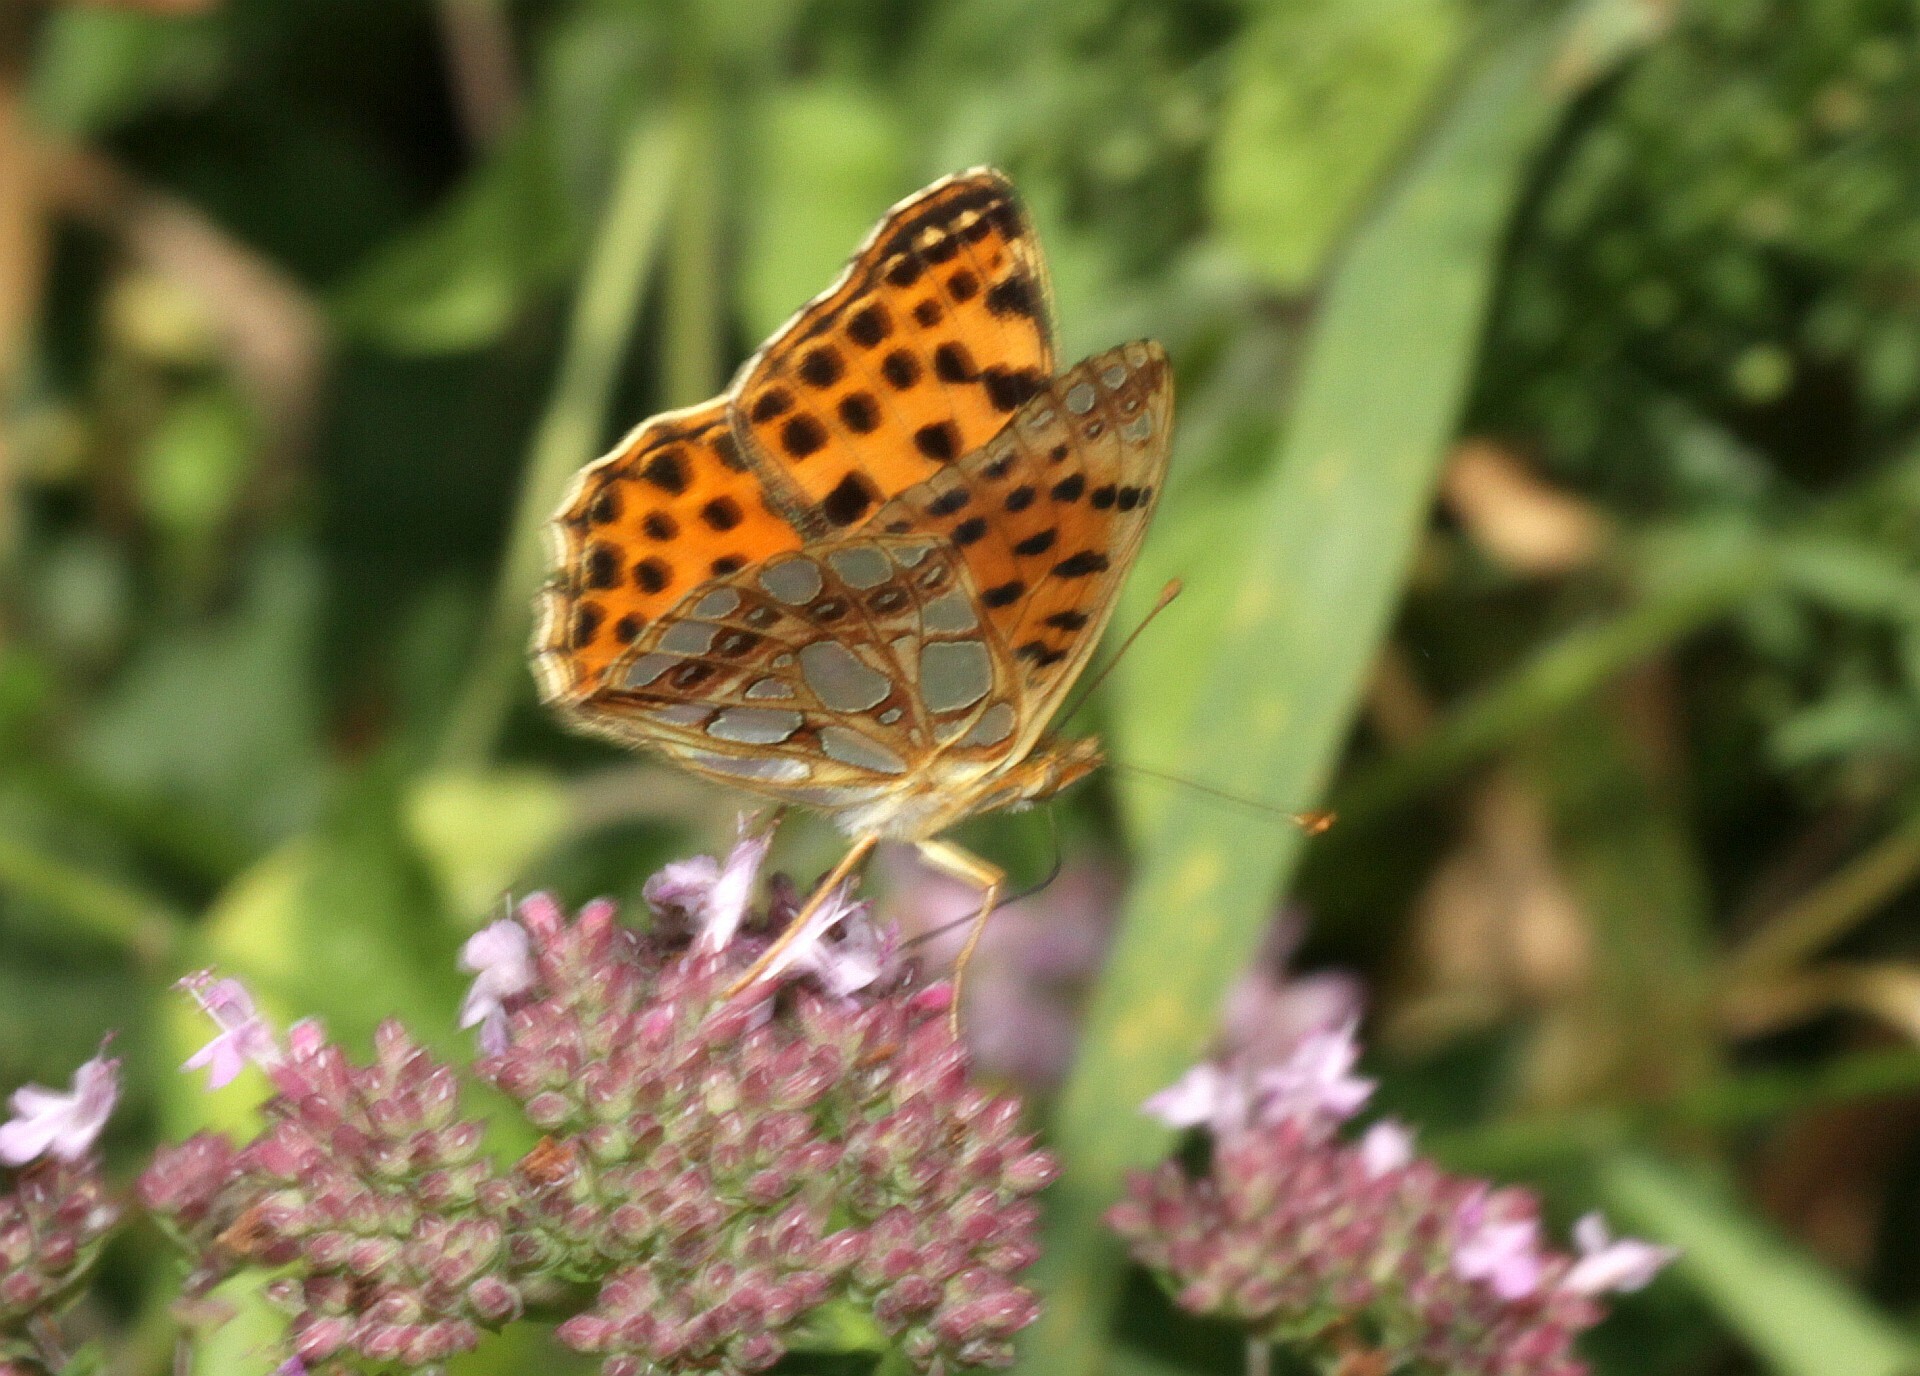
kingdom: Animalia
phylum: Arthropoda
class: Insecta
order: Lepidoptera
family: Nymphalidae
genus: Issoria
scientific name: Issoria lathonia
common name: Queen of spain fritillary
